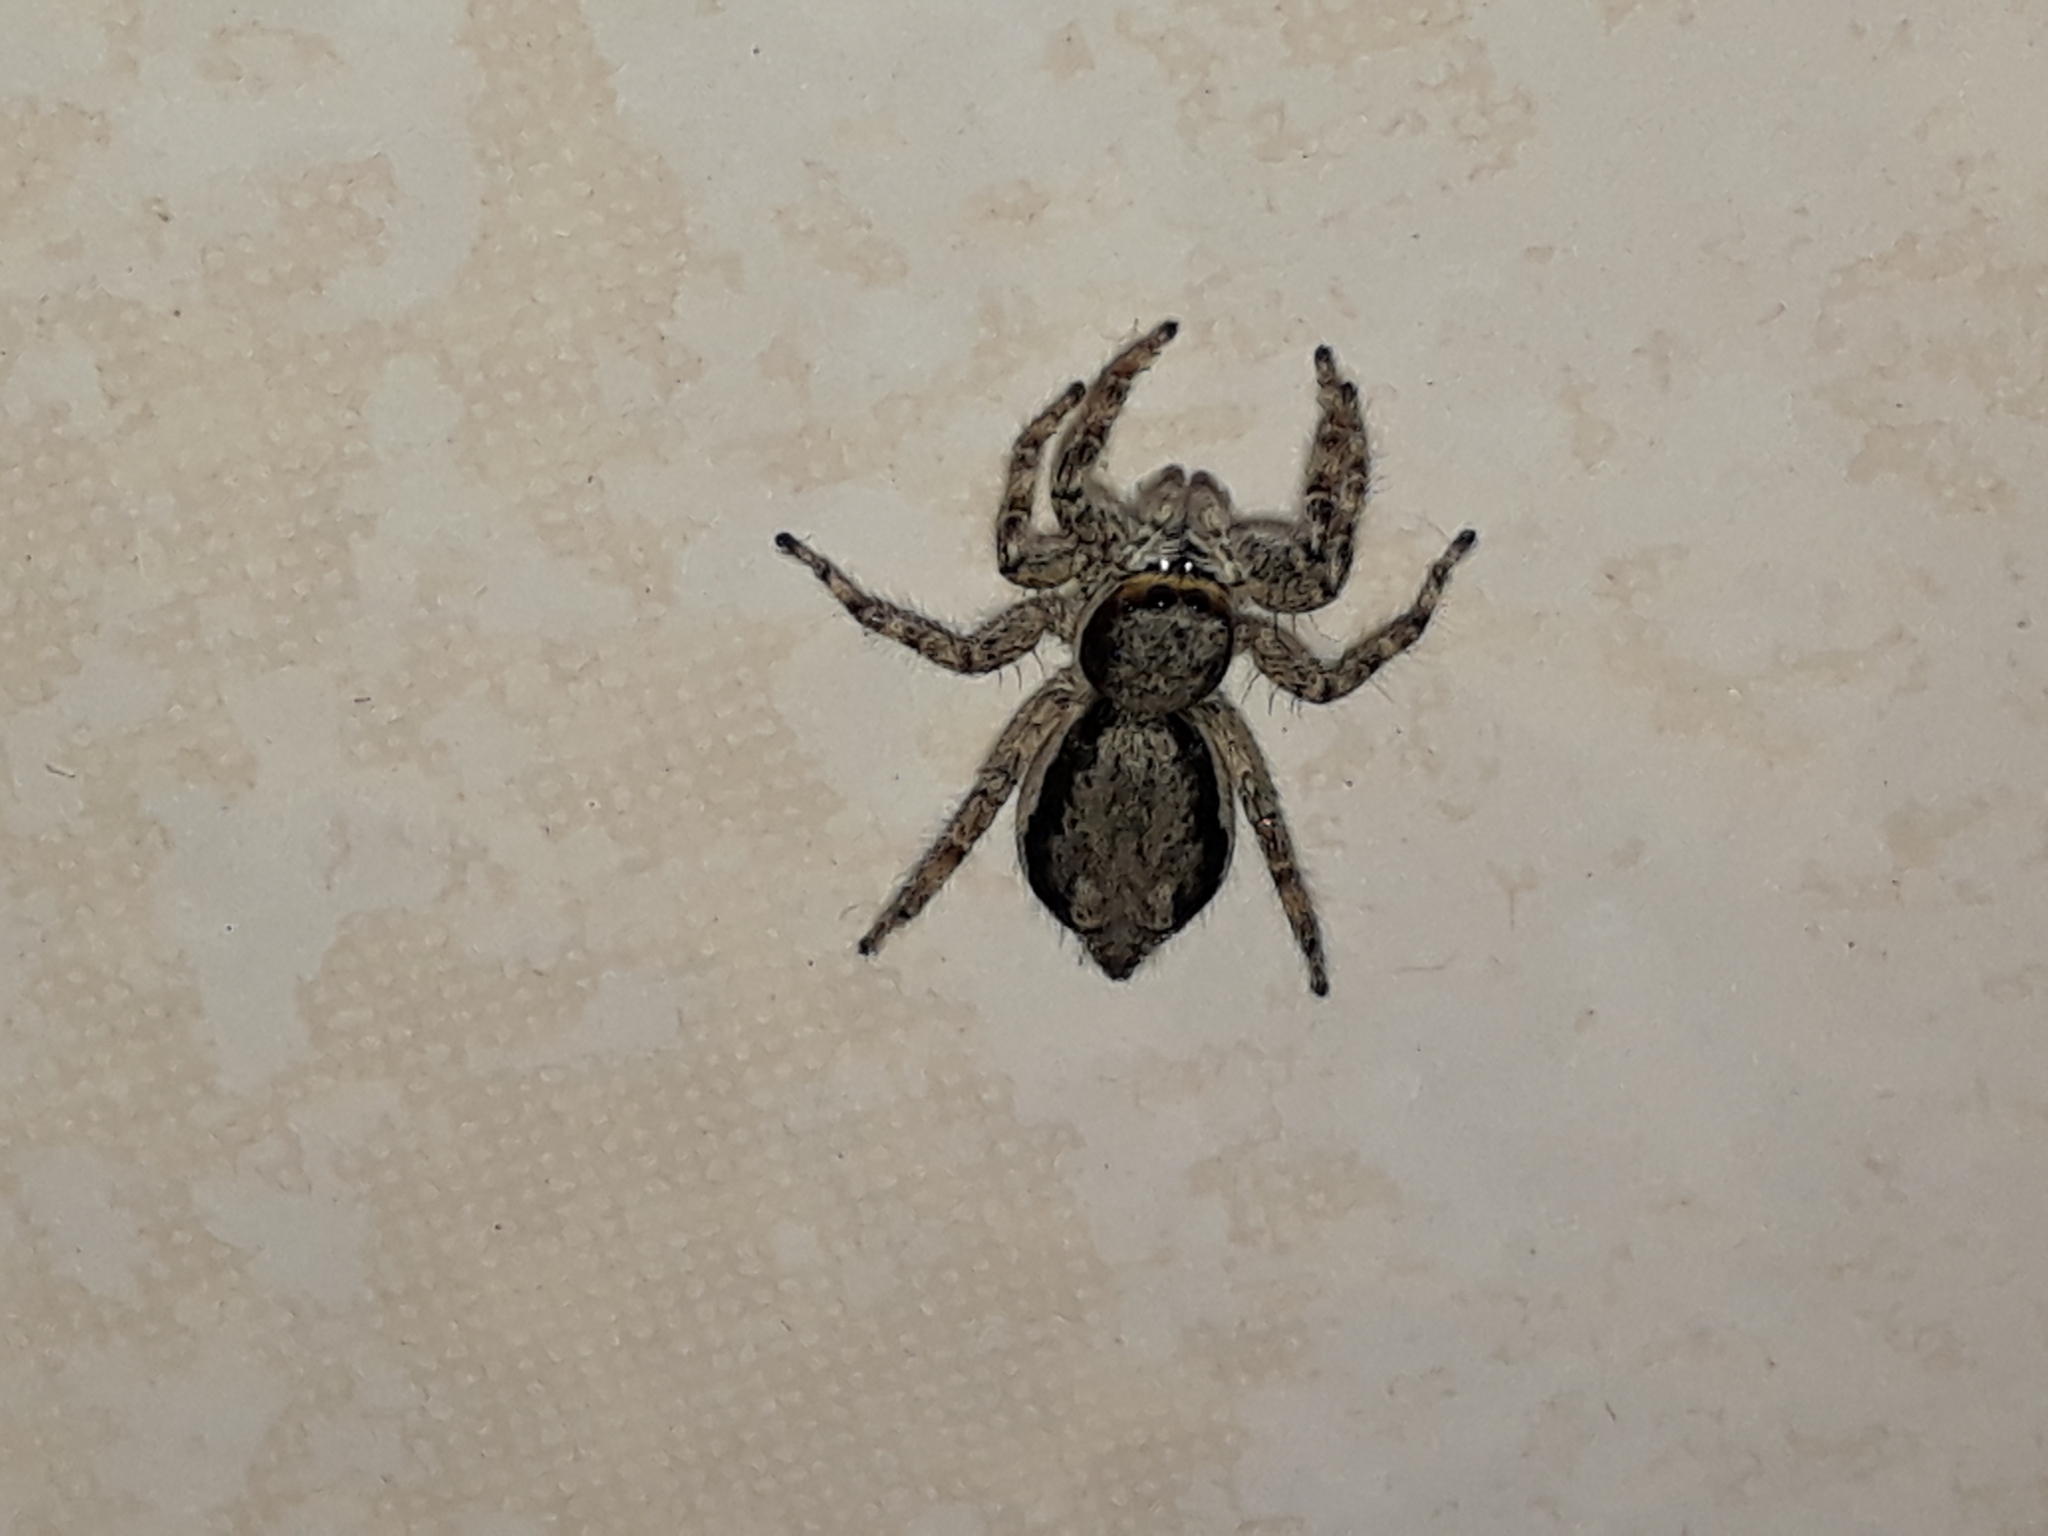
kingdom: Animalia
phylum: Arthropoda
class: Arachnida
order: Araneae
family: Salticidae
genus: Menemerus
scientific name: Menemerus bivittatus
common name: Gray wall jumper
